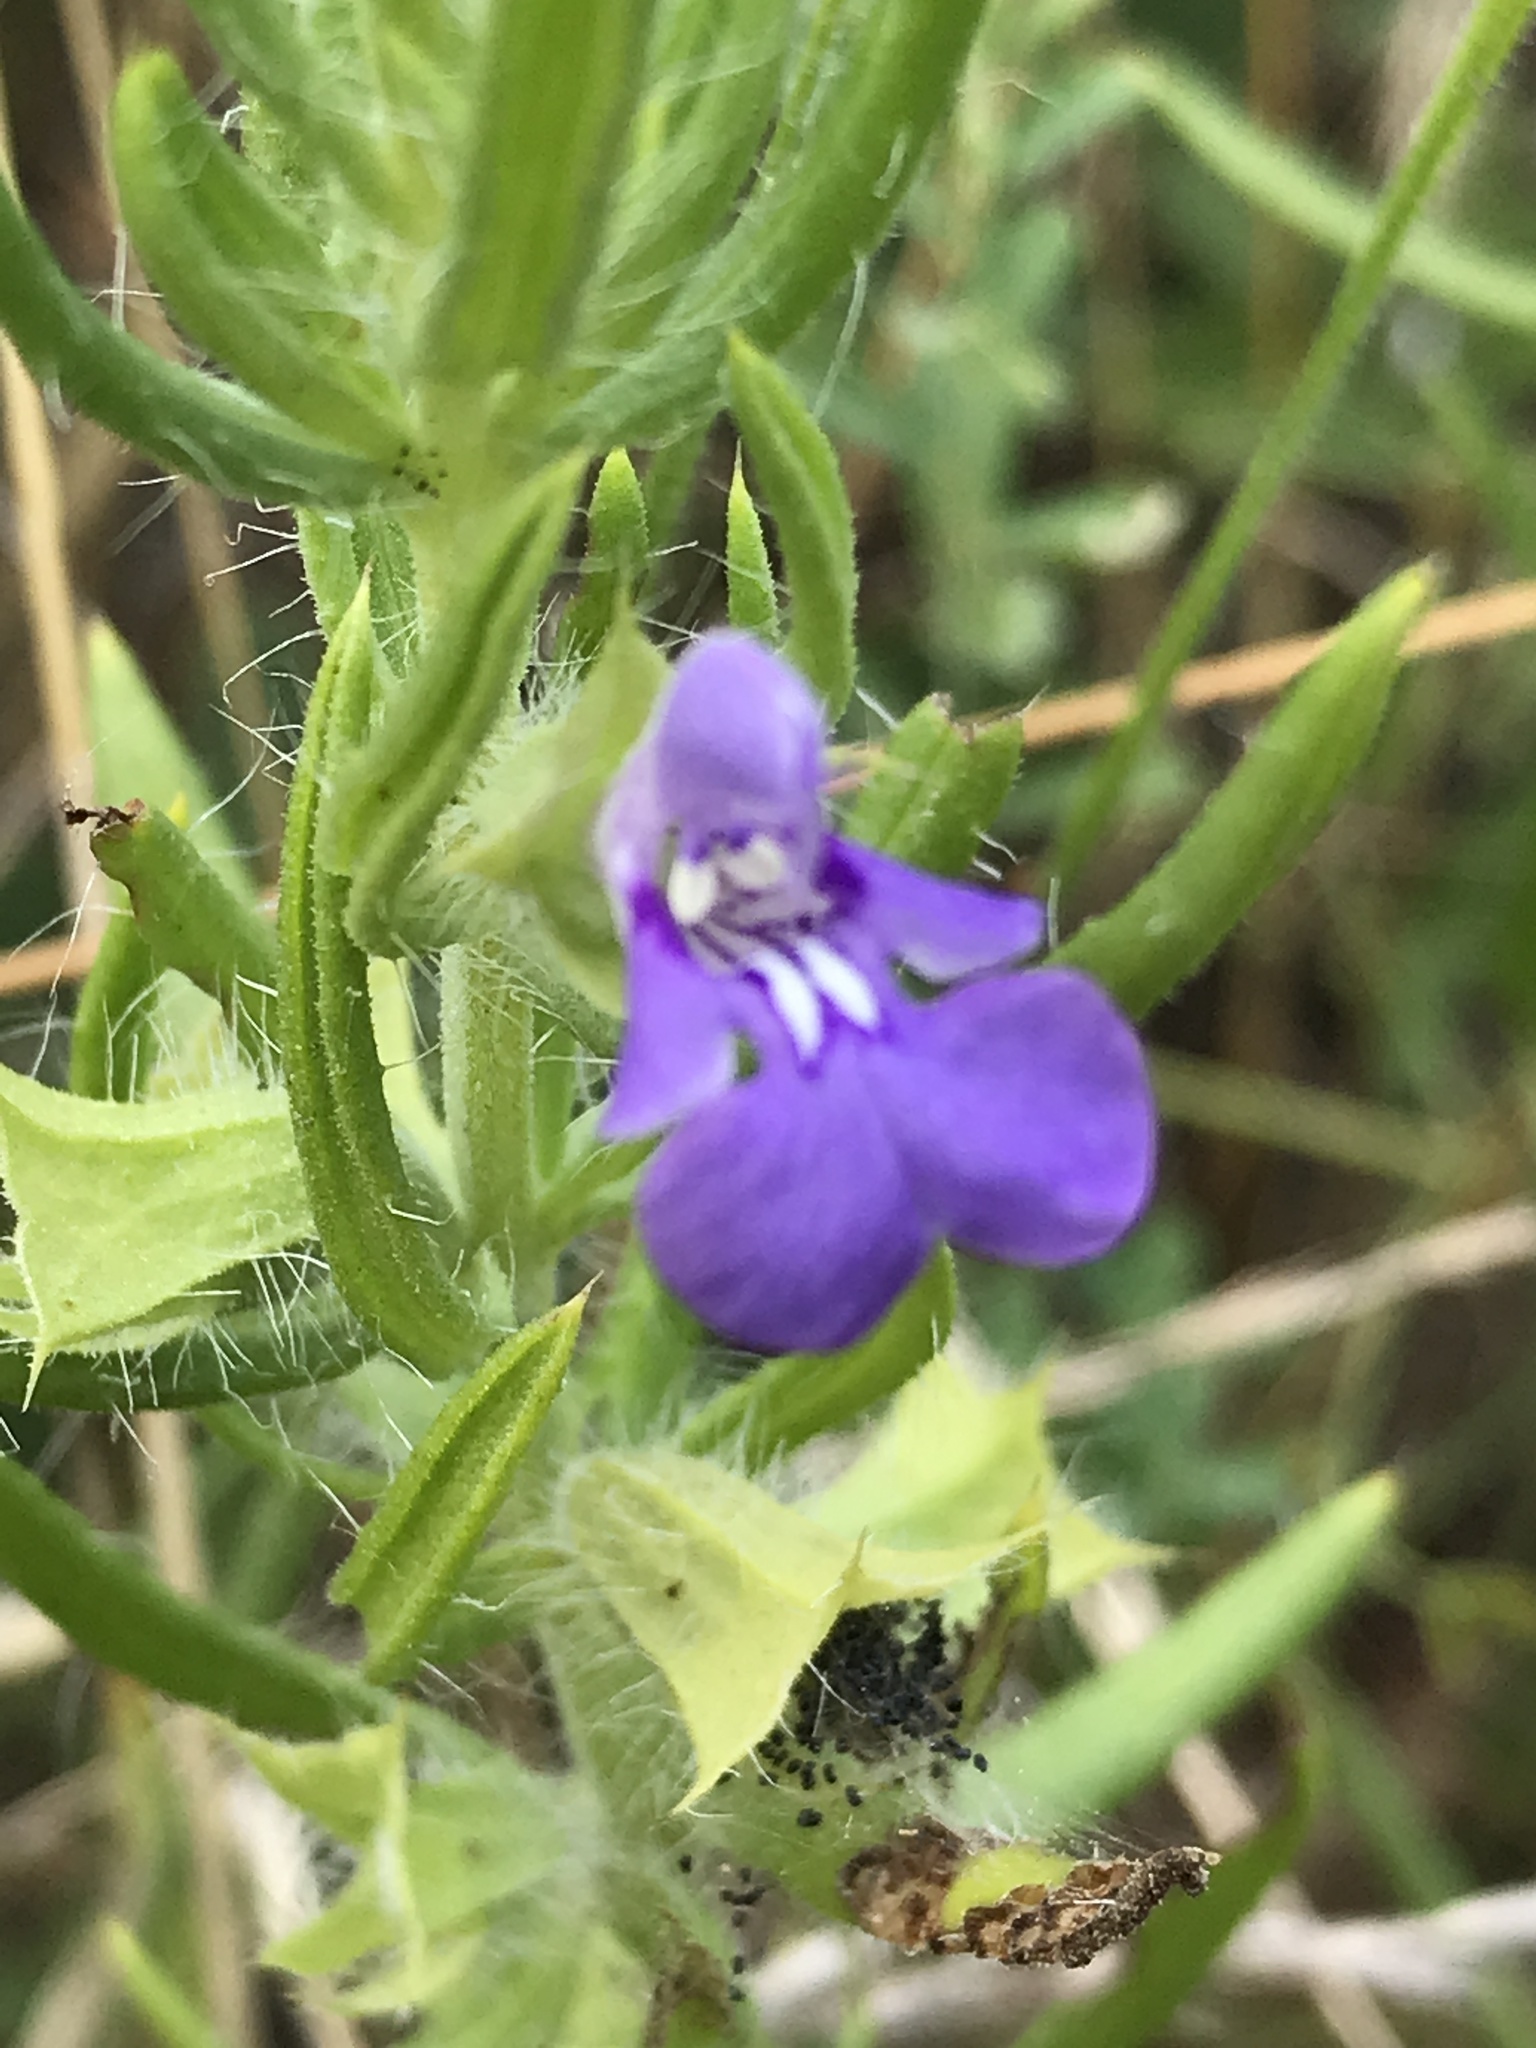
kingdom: Plantae
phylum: Tracheophyta
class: Magnoliopsida
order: Lamiales
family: Lamiaceae
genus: Salvia
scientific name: Salvia texana
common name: Texas sage
